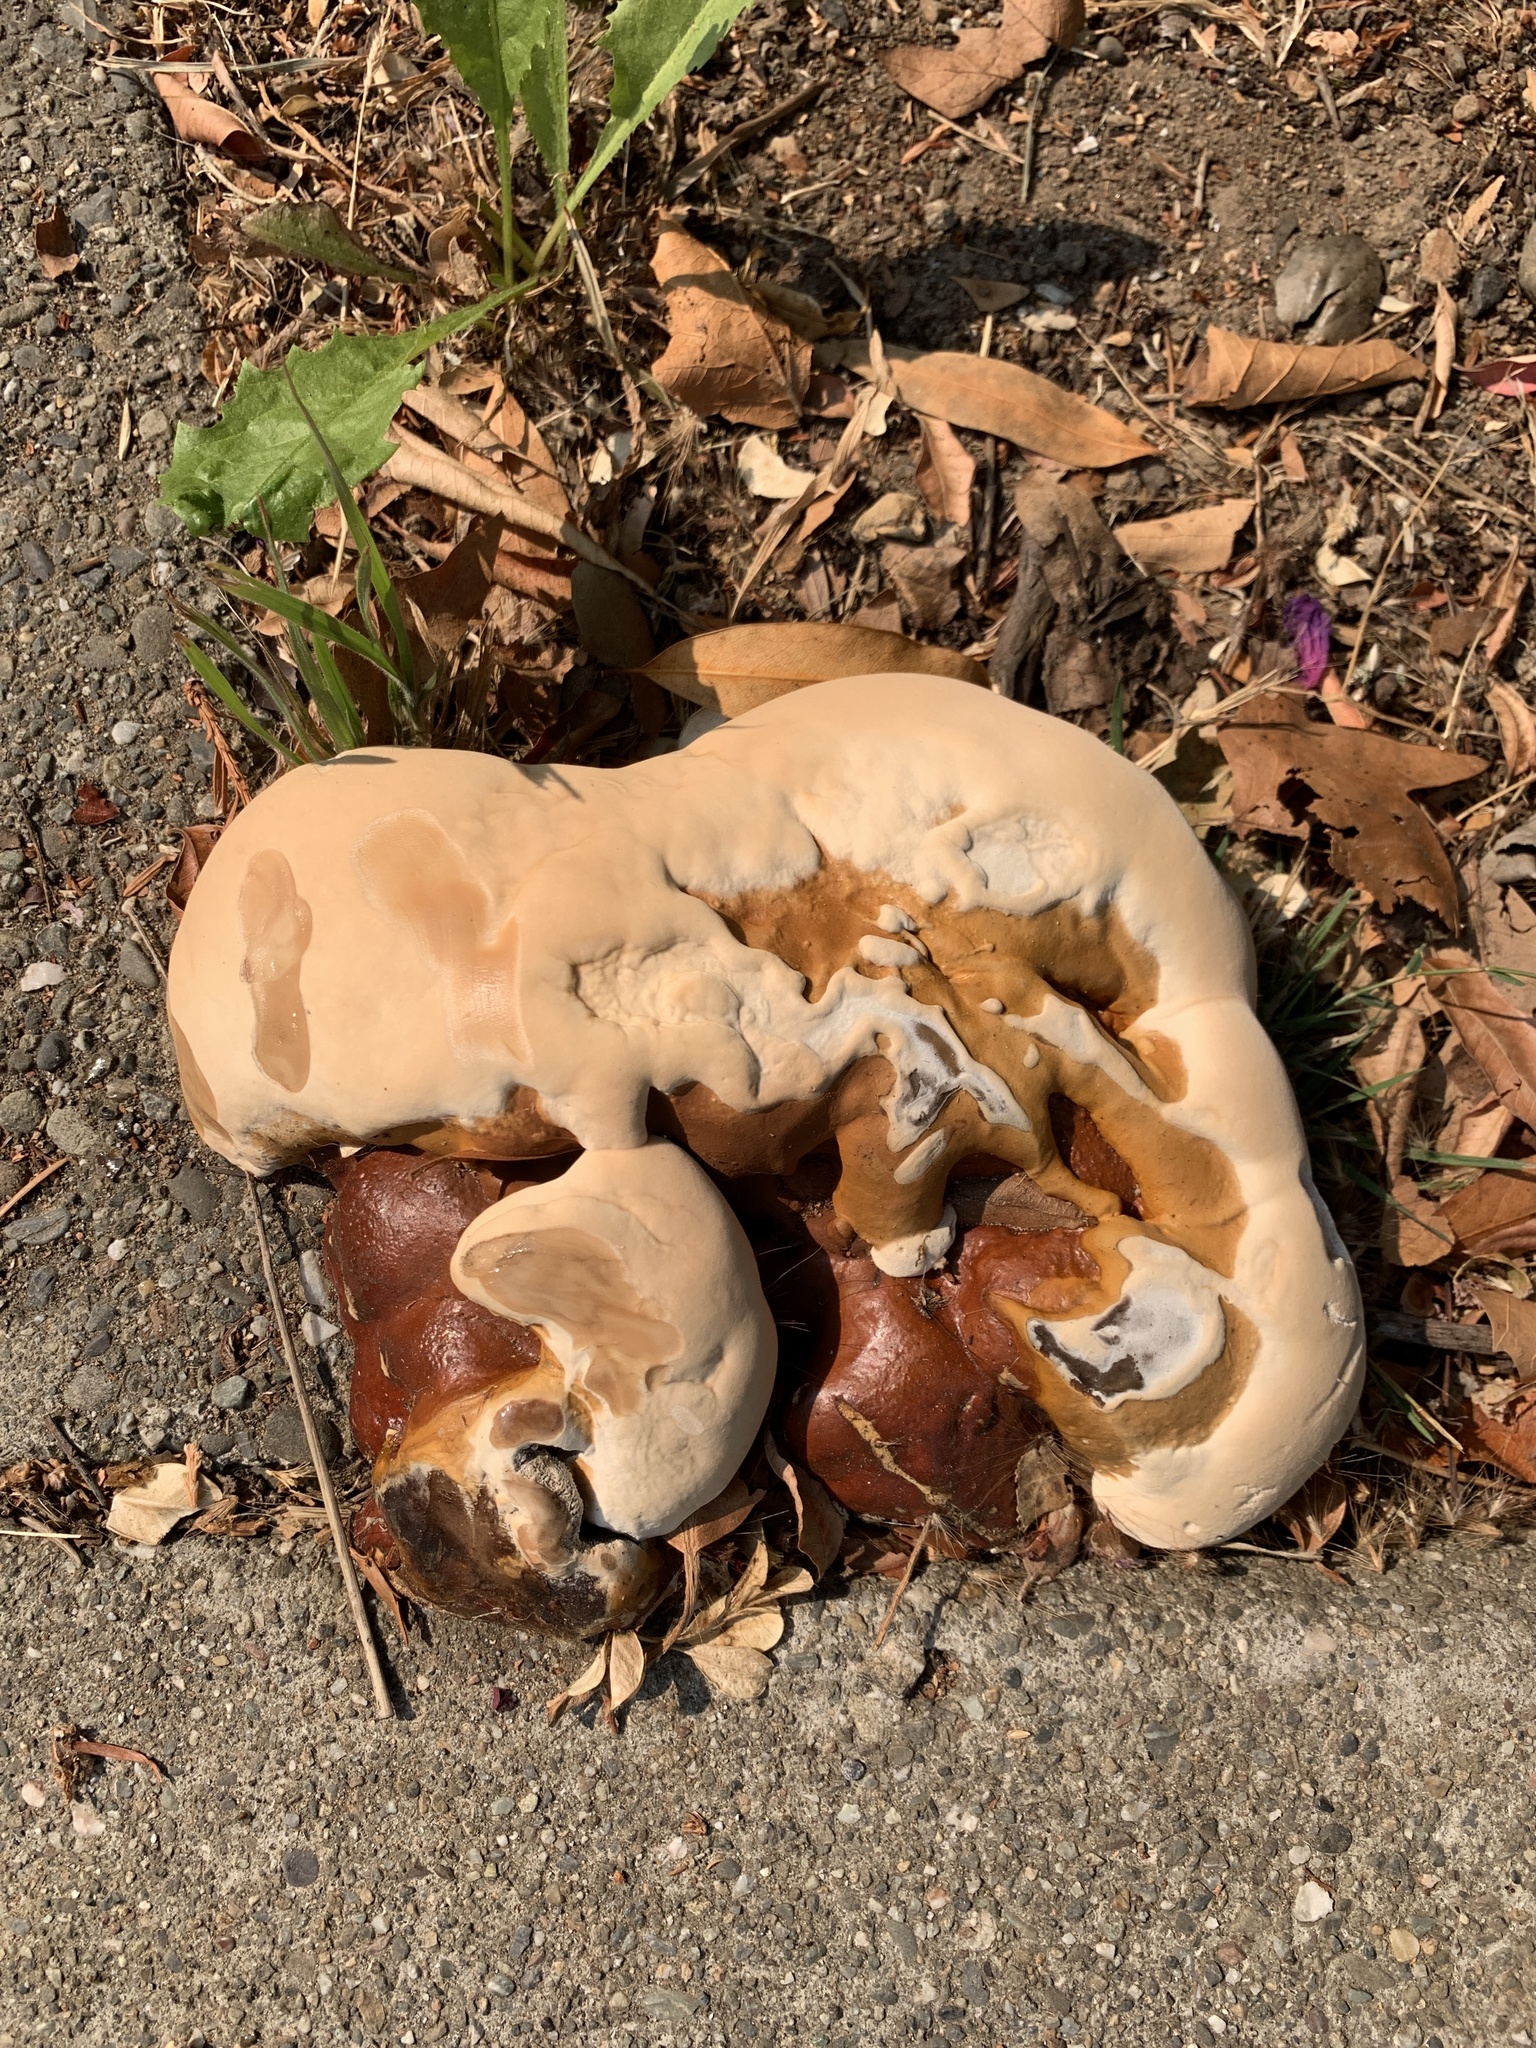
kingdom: Fungi
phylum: Basidiomycota
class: Agaricomycetes
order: Polyporales
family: Polyporaceae
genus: Ganoderma
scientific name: Ganoderma polychromum
